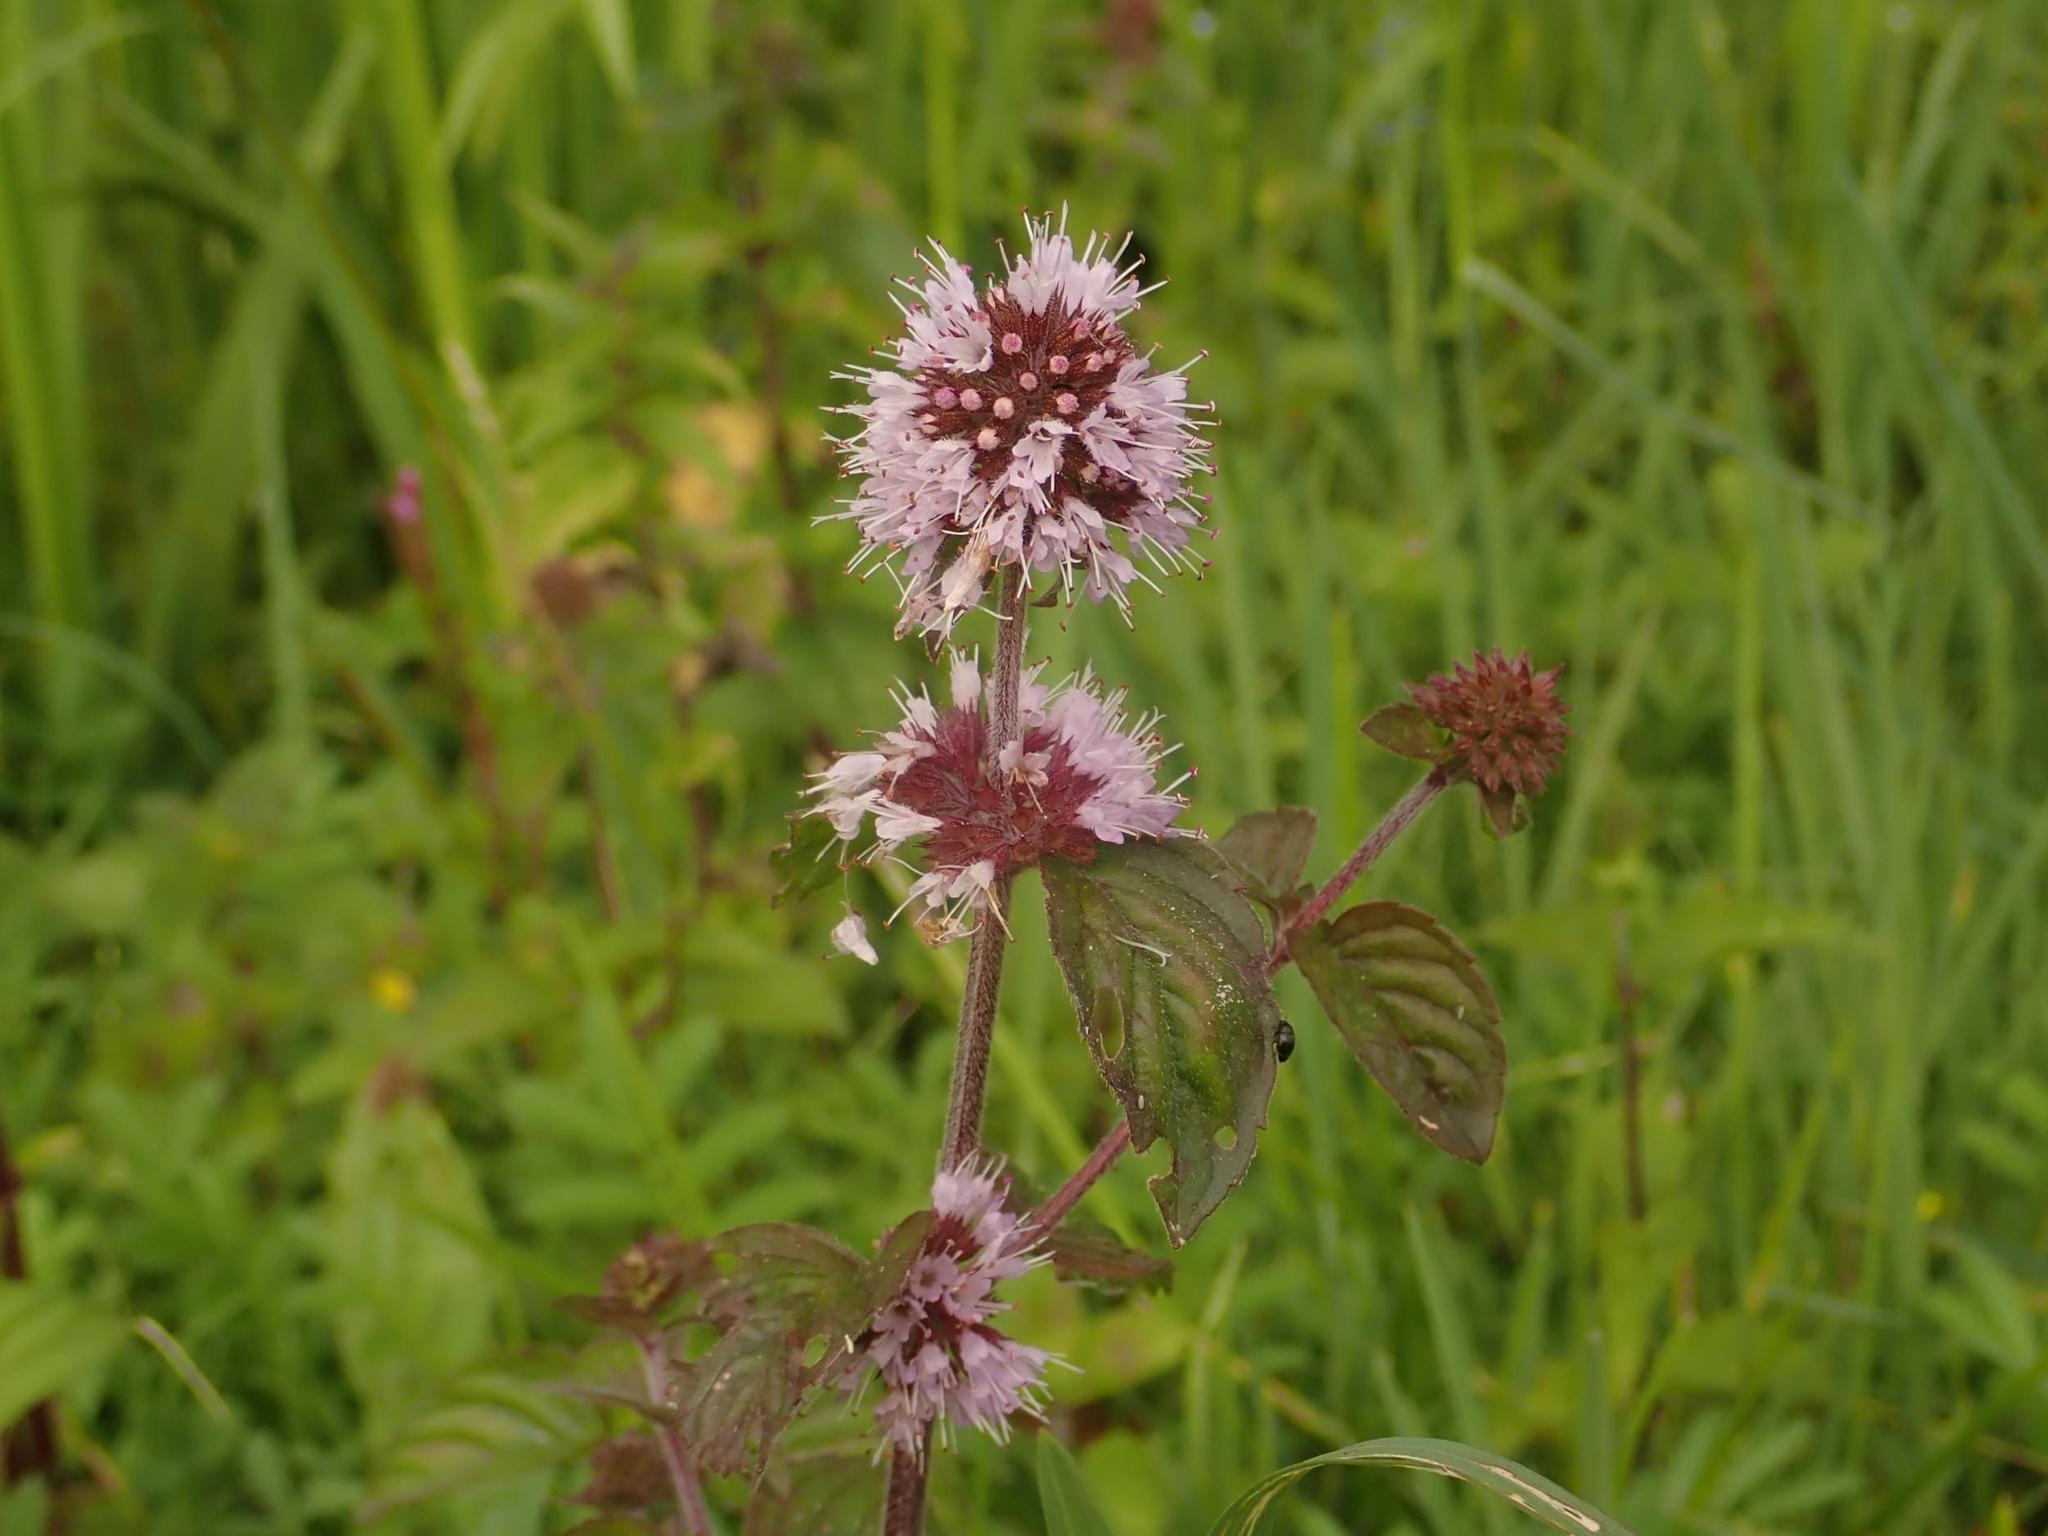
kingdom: Plantae
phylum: Tracheophyta
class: Magnoliopsida
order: Lamiales
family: Lamiaceae
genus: Mentha
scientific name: Mentha aquatica
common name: Water mint
